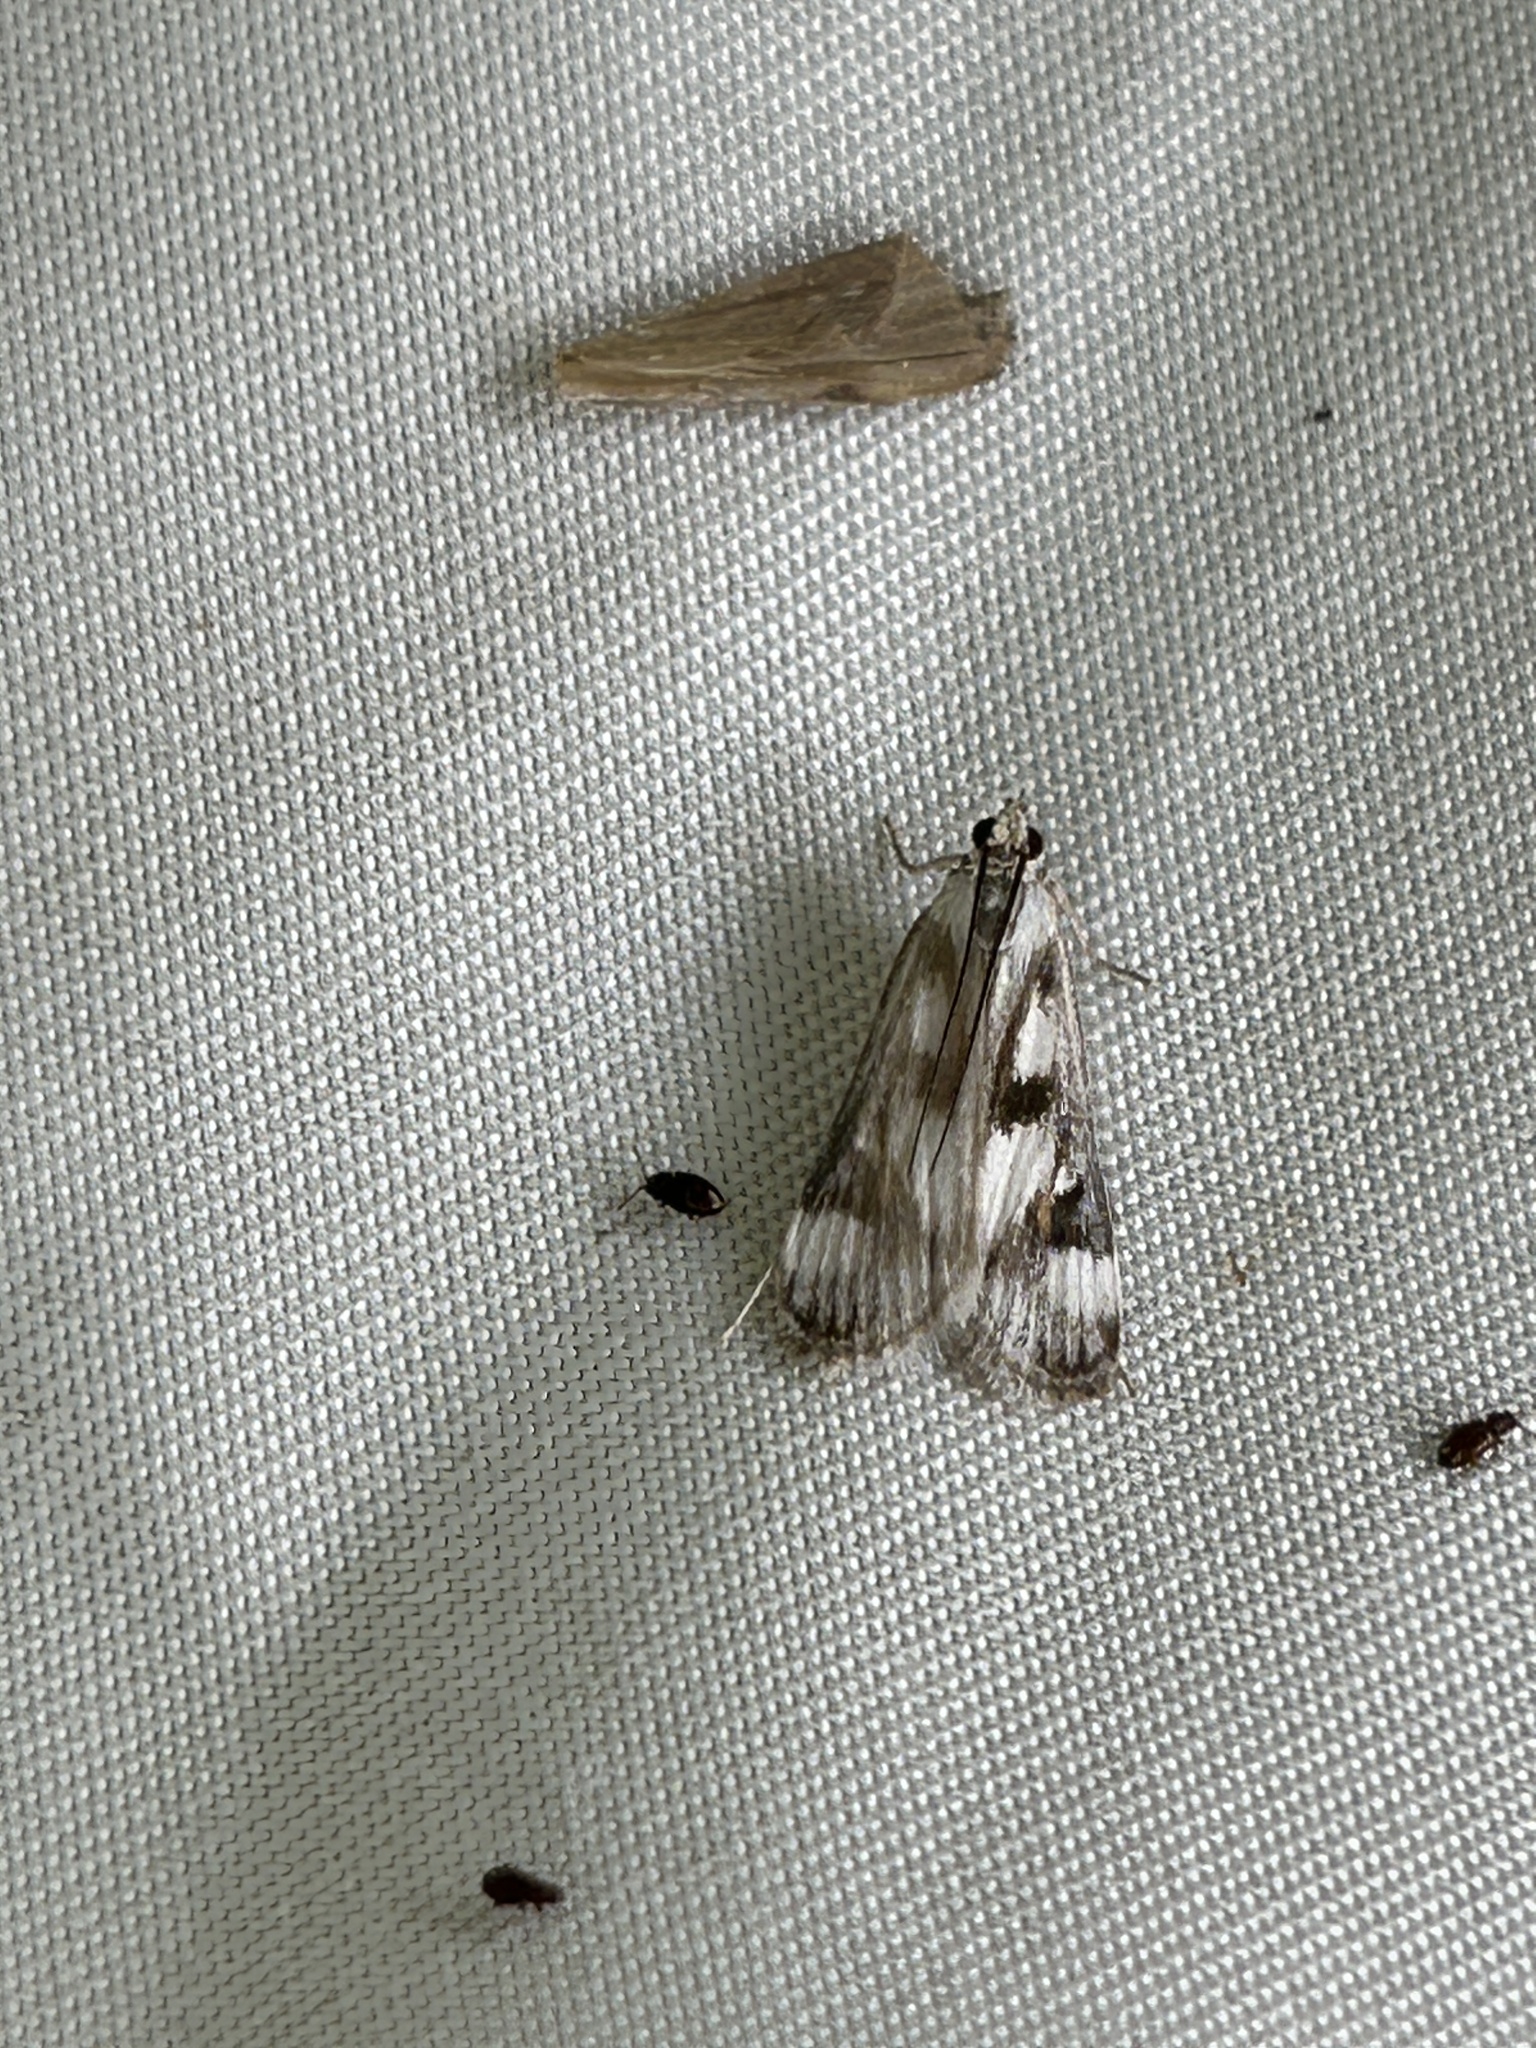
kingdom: Animalia
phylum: Arthropoda
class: Insecta
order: Lepidoptera
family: Crambidae
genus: Parapoynx
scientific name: Parapoynx maculalis
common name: Polymorphic pondweed moth
